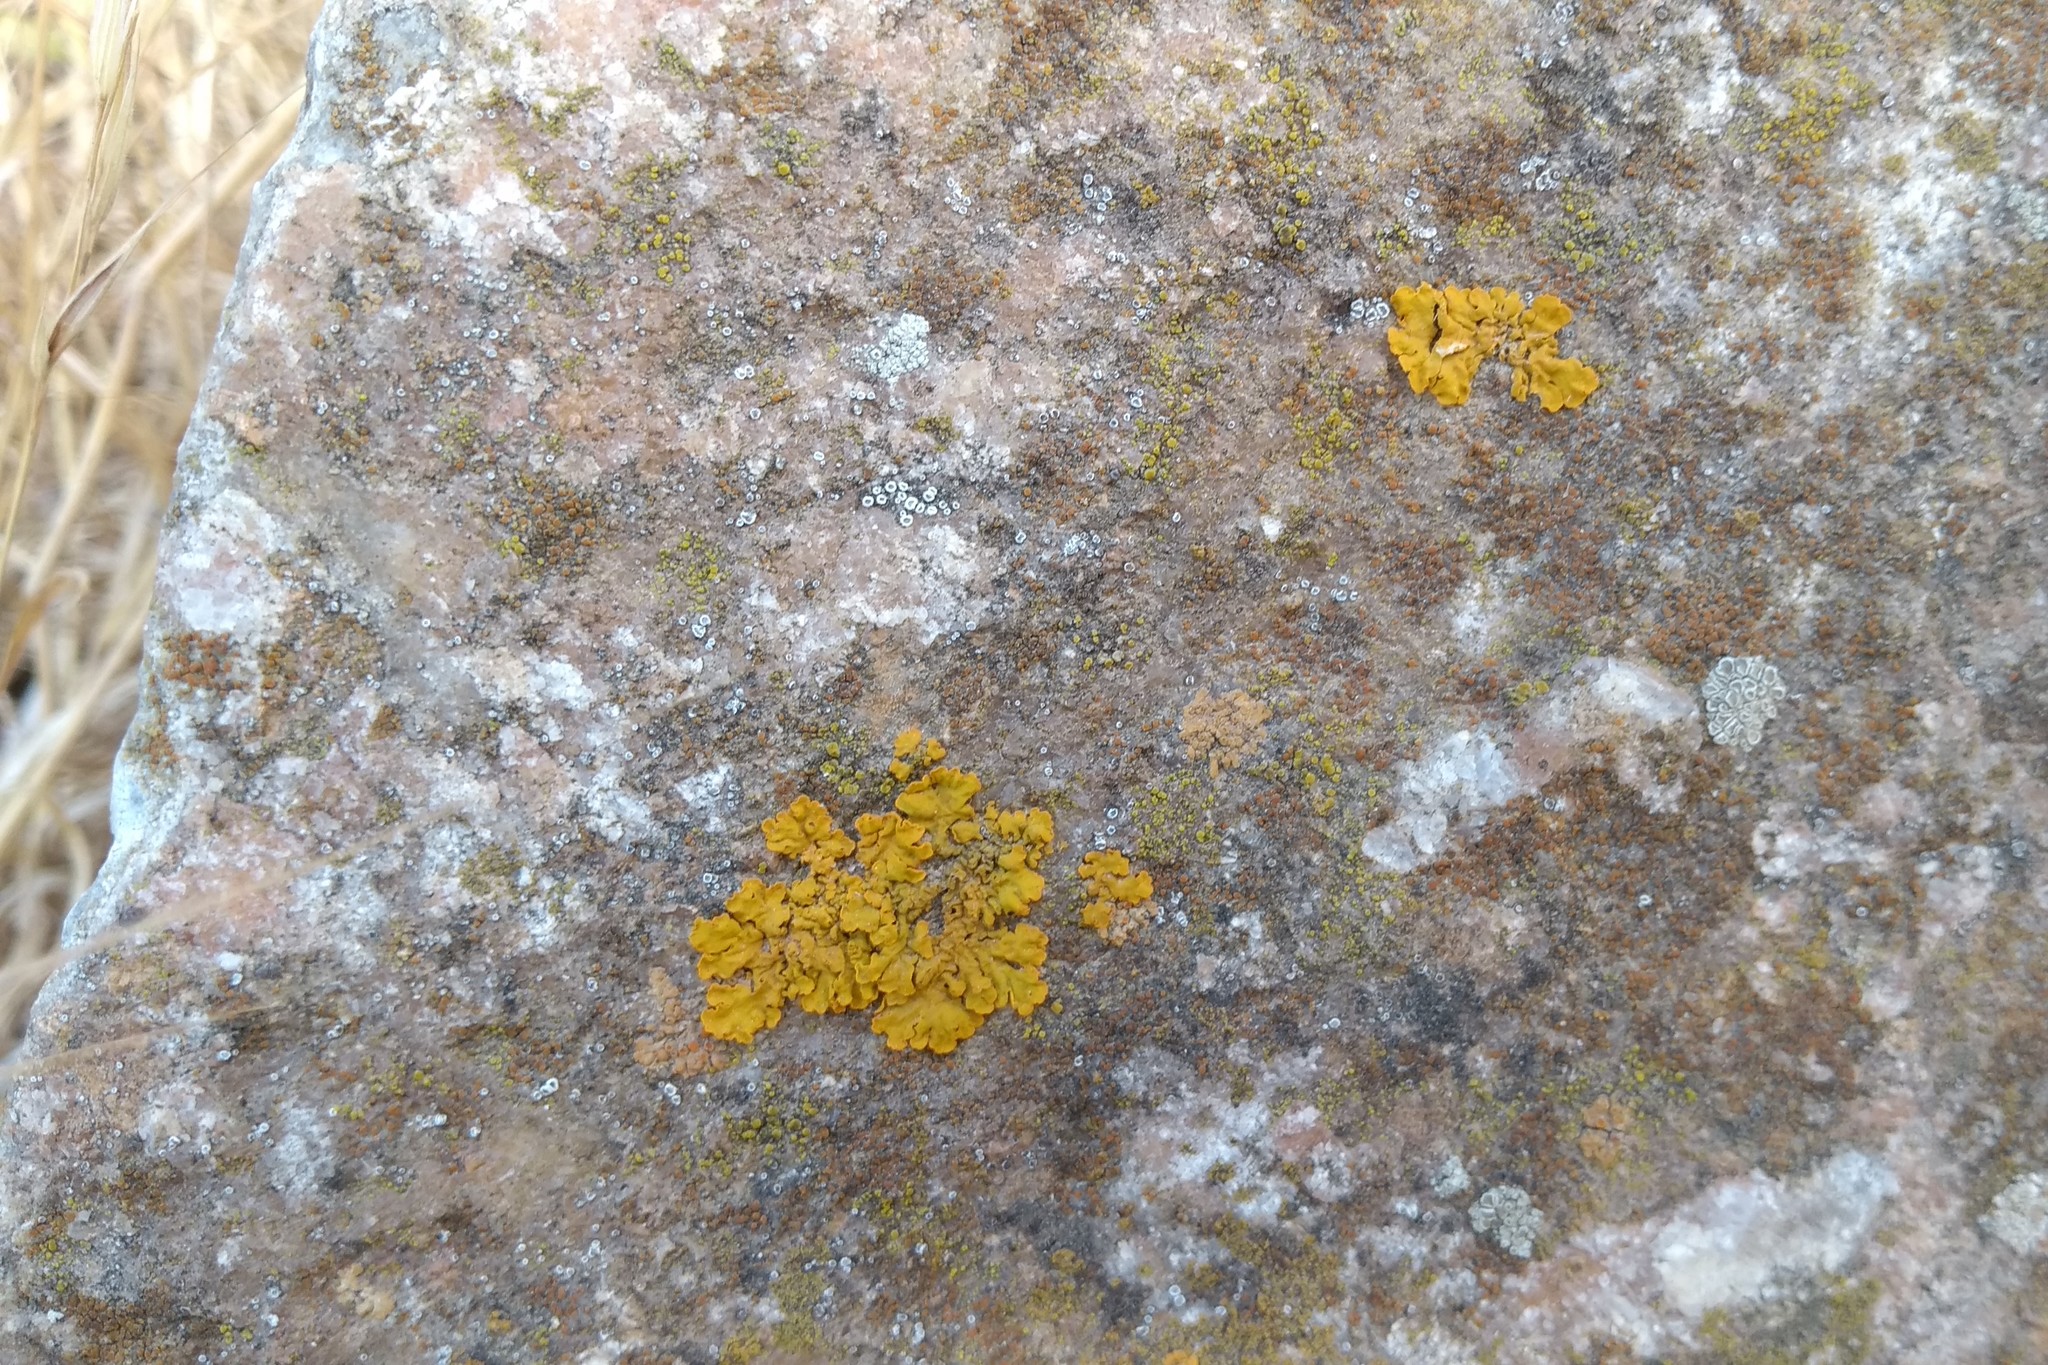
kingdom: Fungi
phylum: Ascomycota
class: Lecanoromycetes
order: Teloschistales
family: Teloschistaceae
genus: Xanthoria
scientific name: Xanthoria parietina
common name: Common orange lichen
